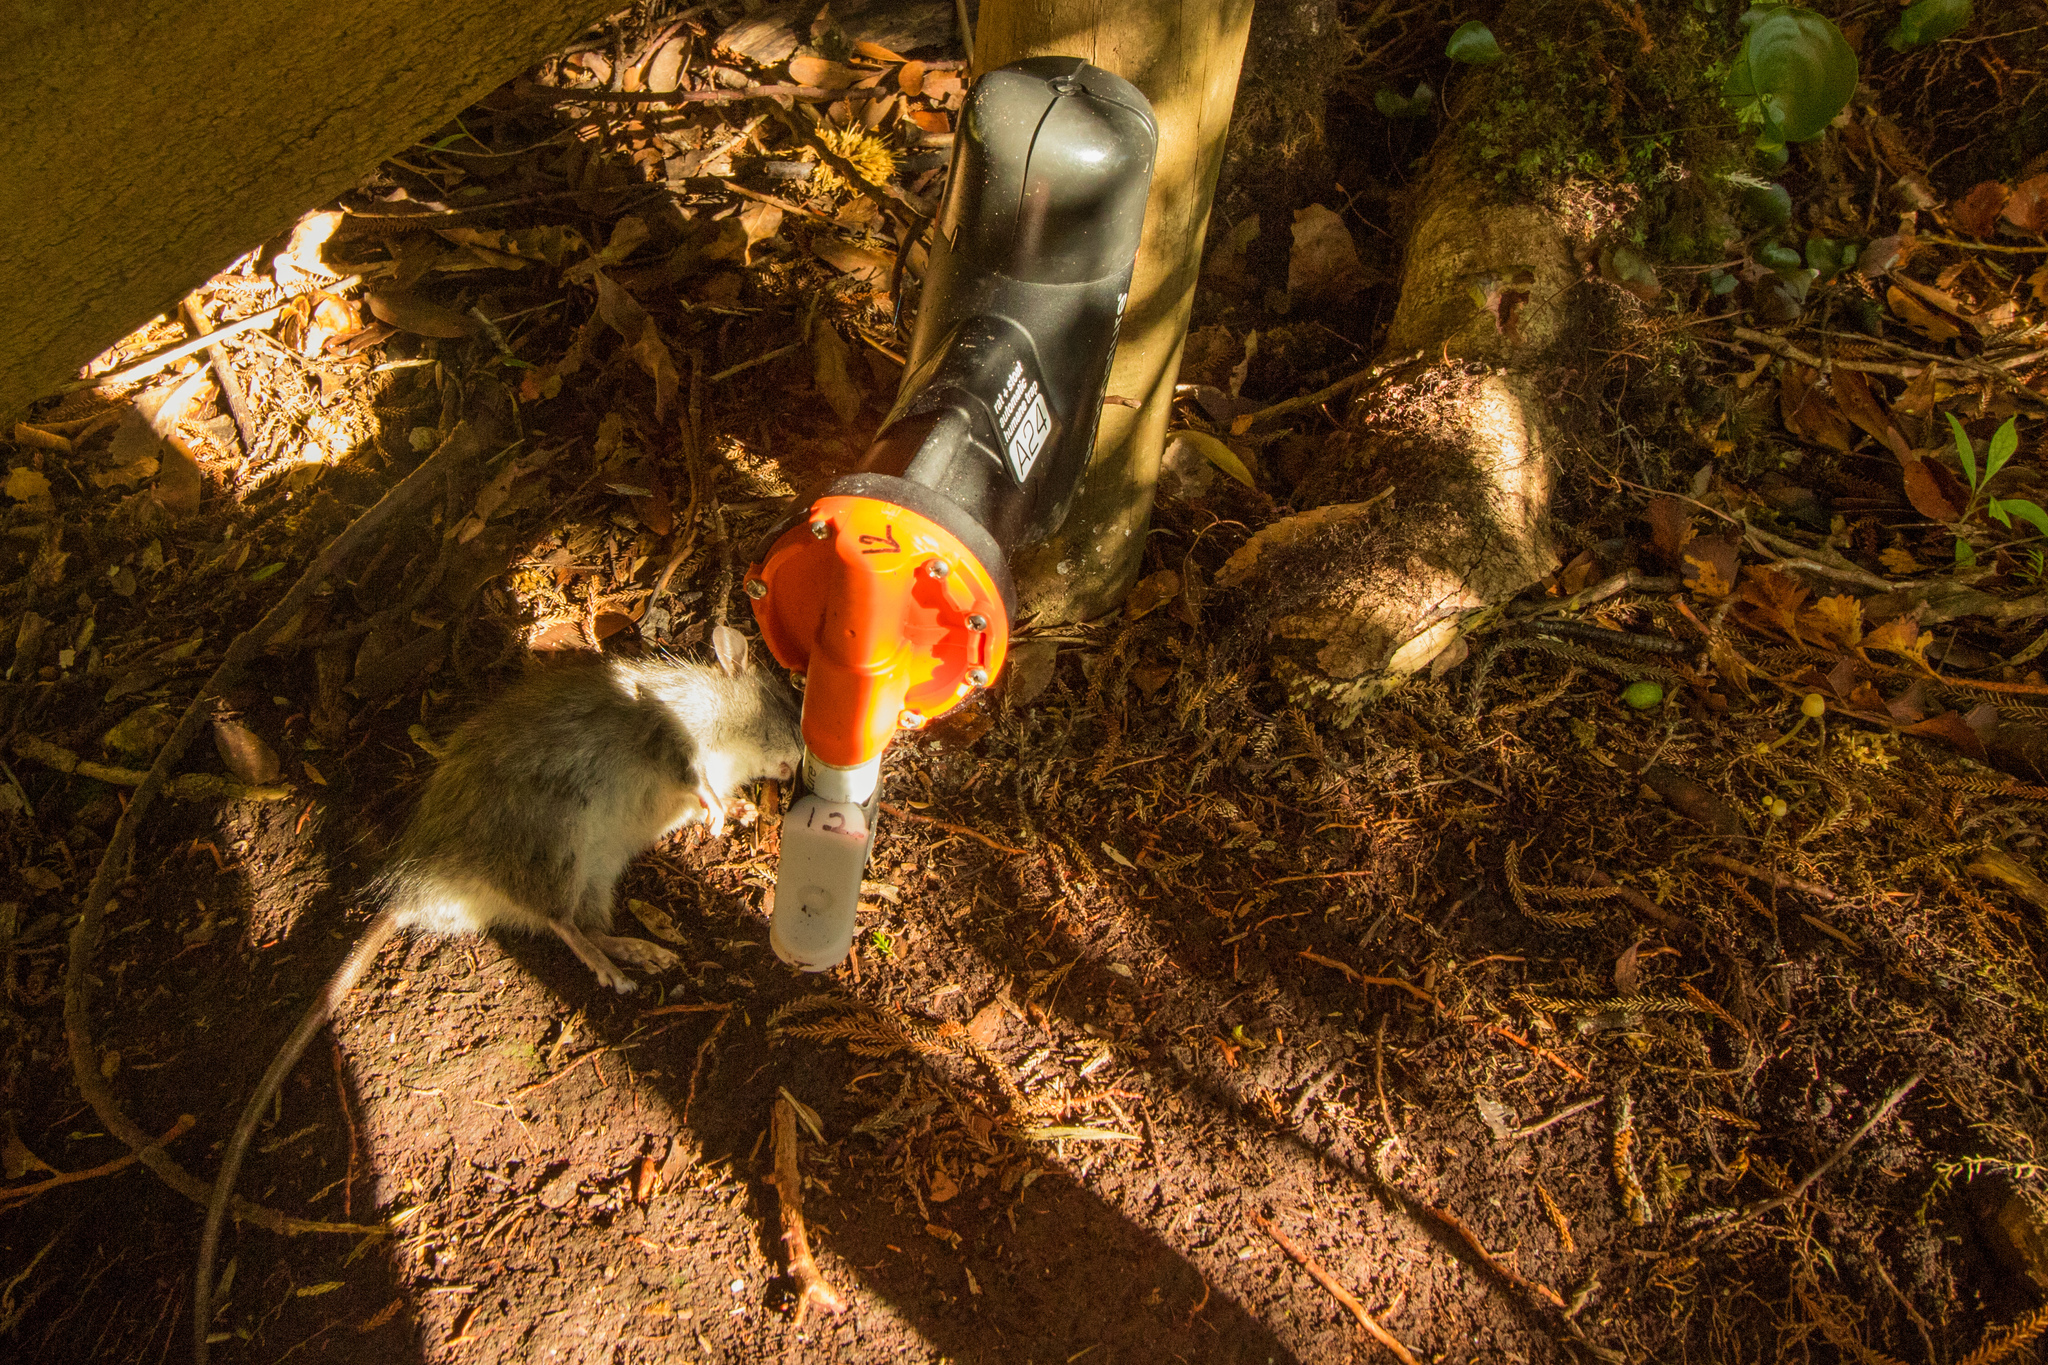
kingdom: Animalia
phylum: Chordata
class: Mammalia
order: Rodentia
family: Muridae
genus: Rattus
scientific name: Rattus rattus
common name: Black rat
